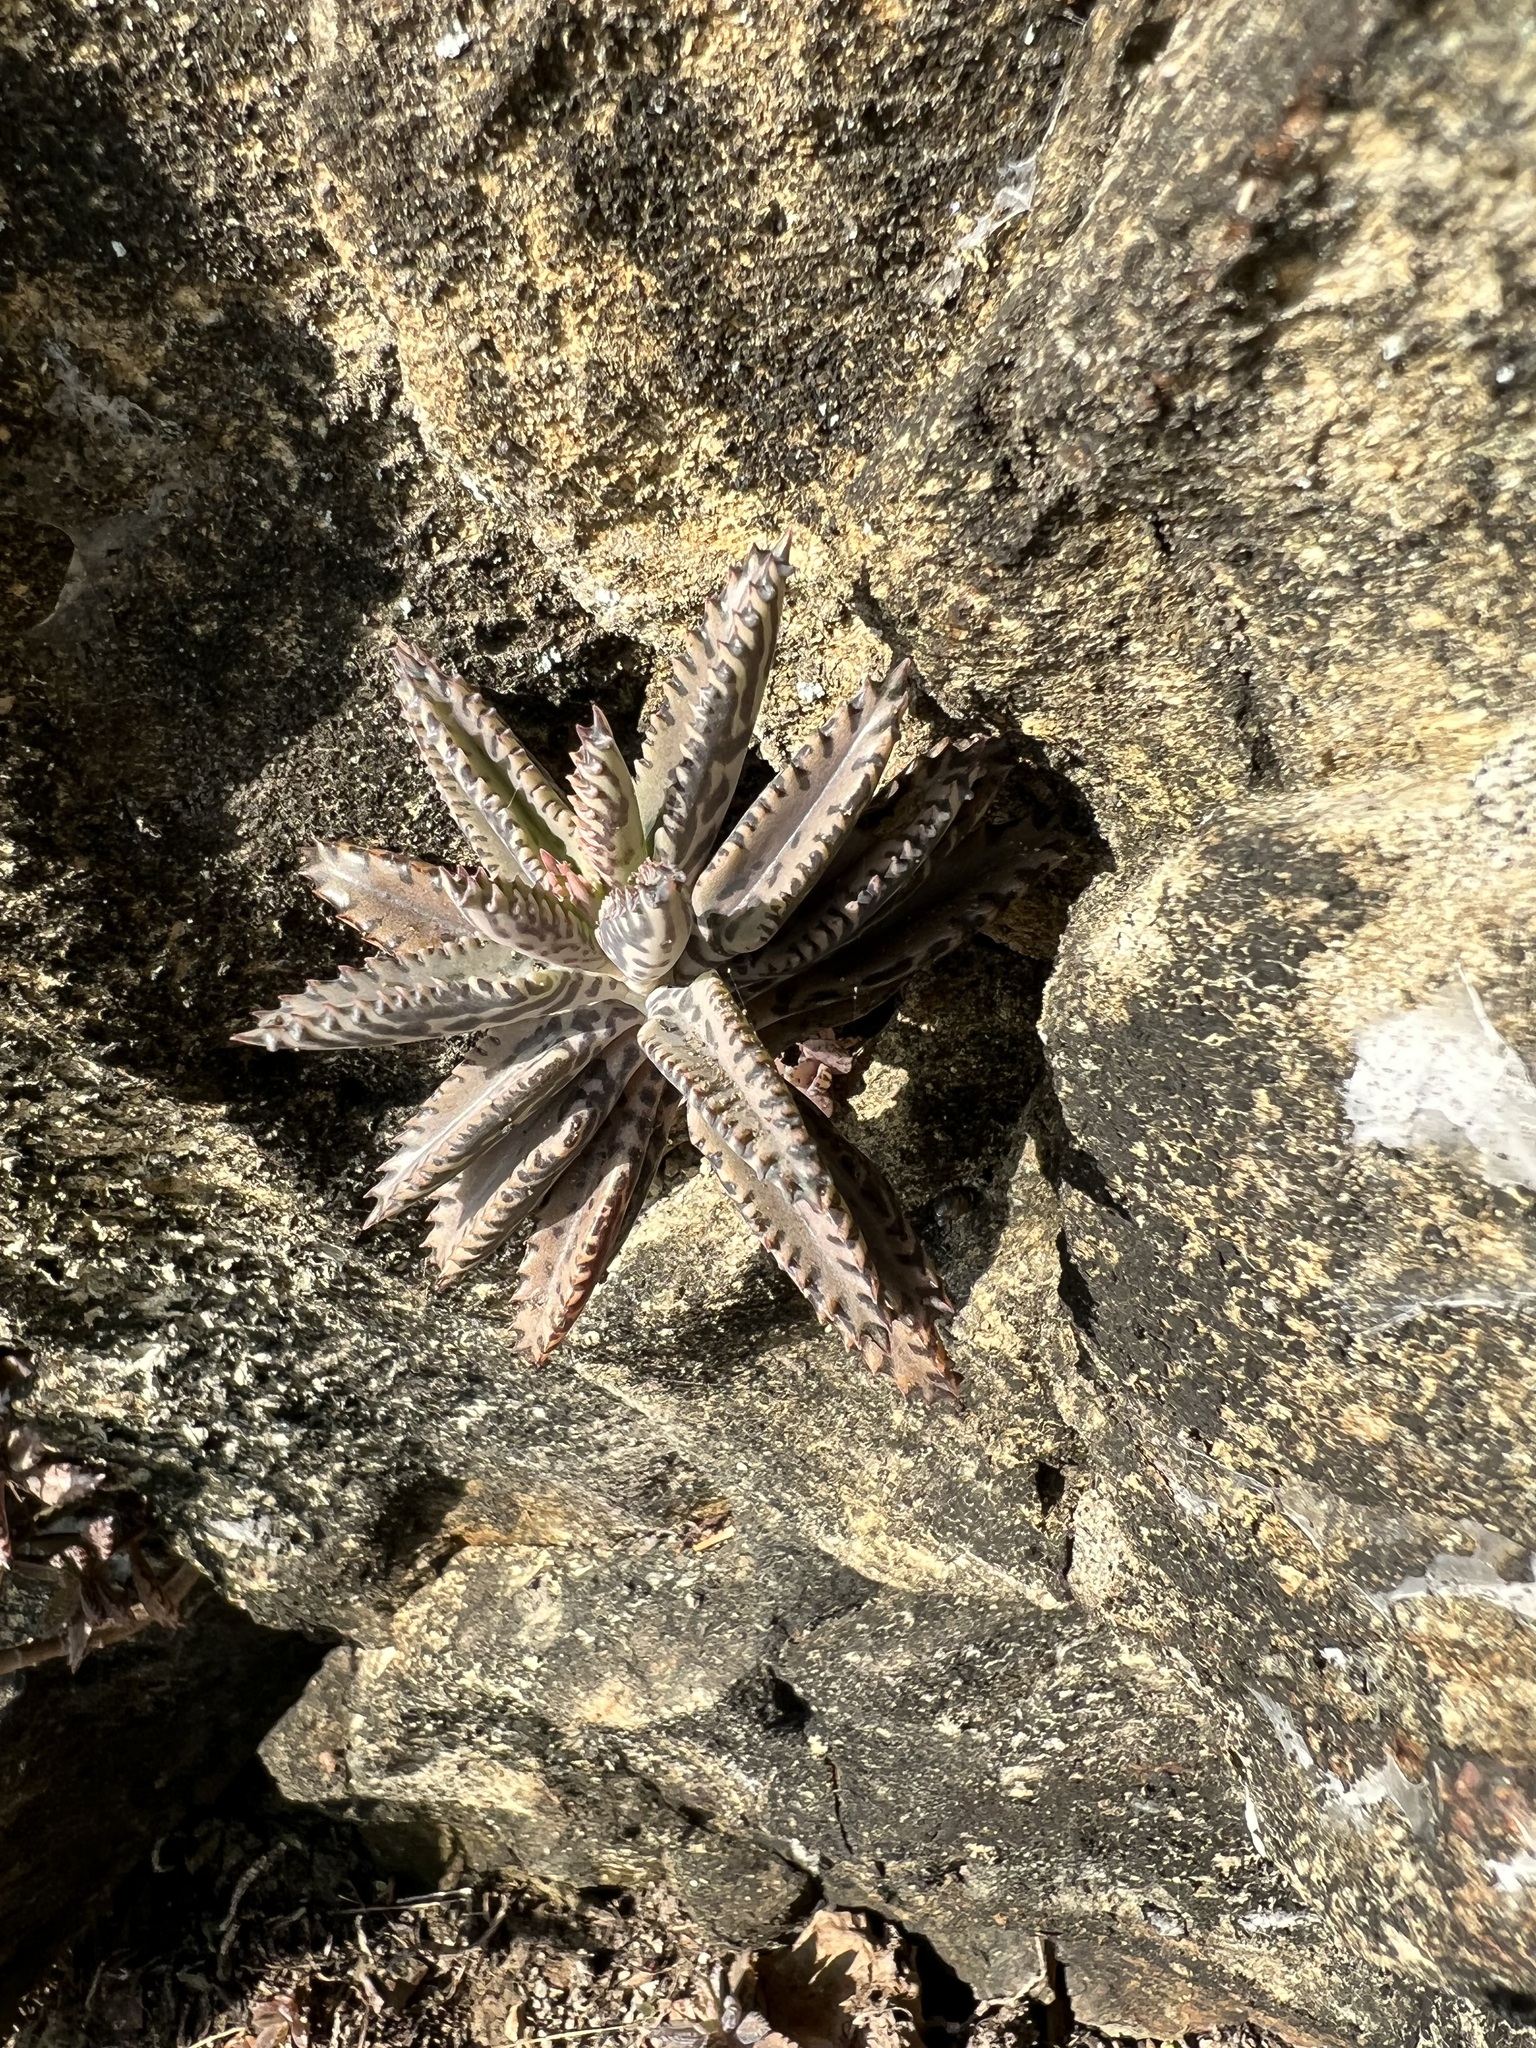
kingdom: Plantae
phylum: Tracheophyta
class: Magnoliopsida
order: Saxifragales
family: Crassulaceae
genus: Kalanchoe
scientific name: Kalanchoe houghtonii
